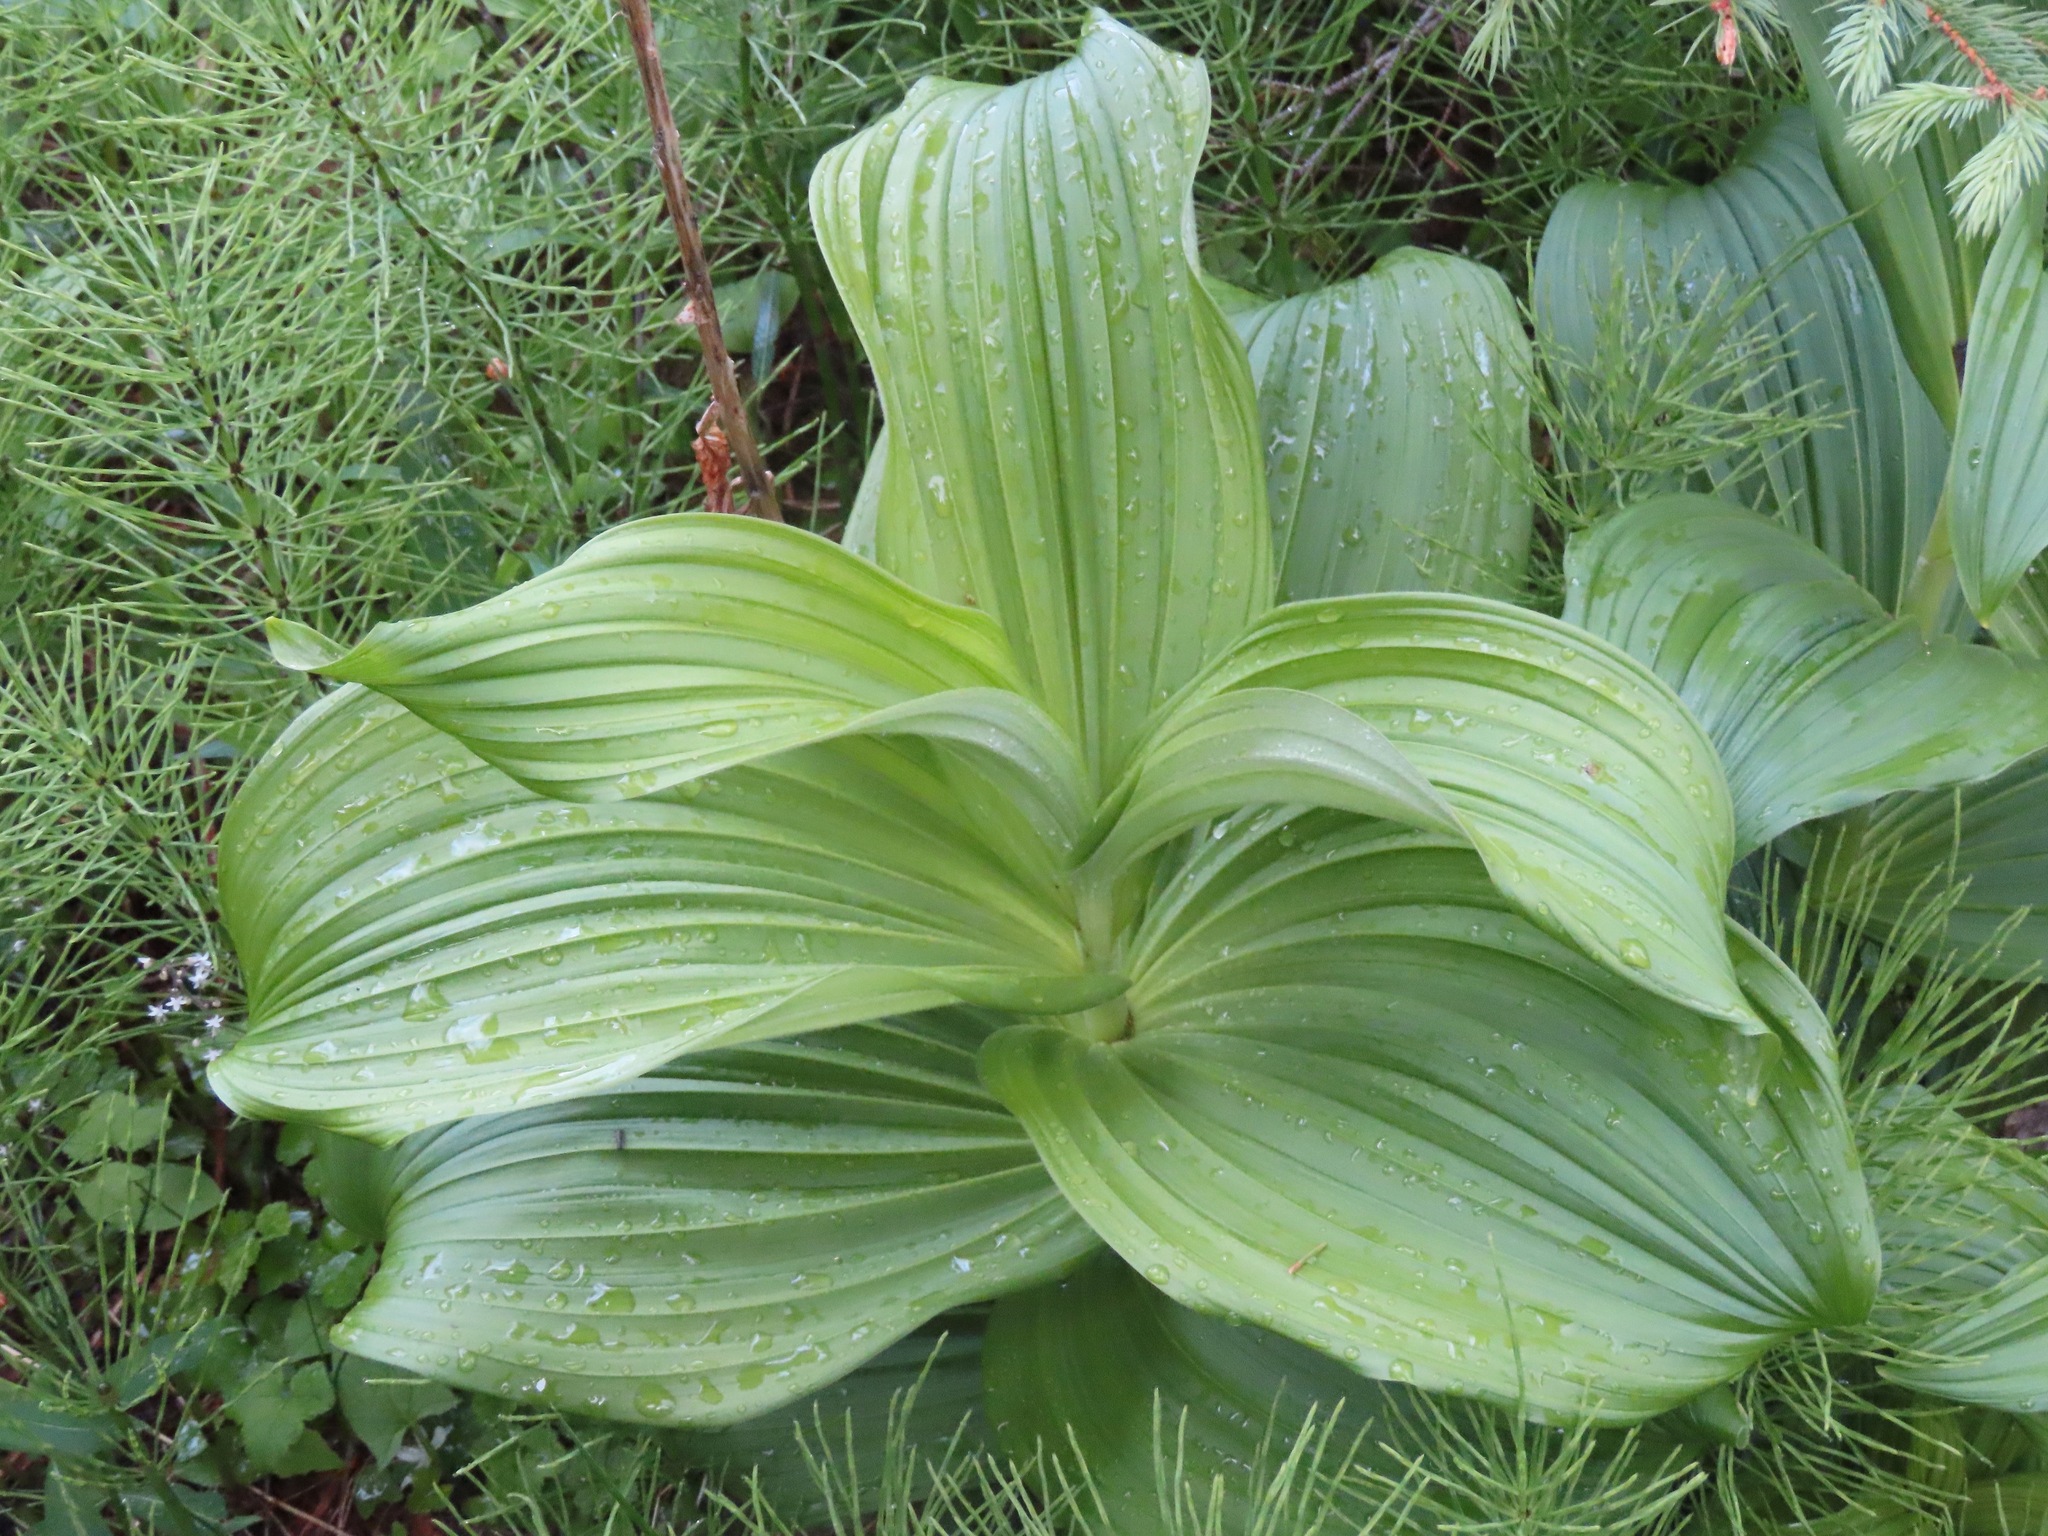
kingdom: Plantae
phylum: Tracheophyta
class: Liliopsida
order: Liliales
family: Melanthiaceae
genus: Veratrum
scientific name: Veratrum viride
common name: American false hellebore
